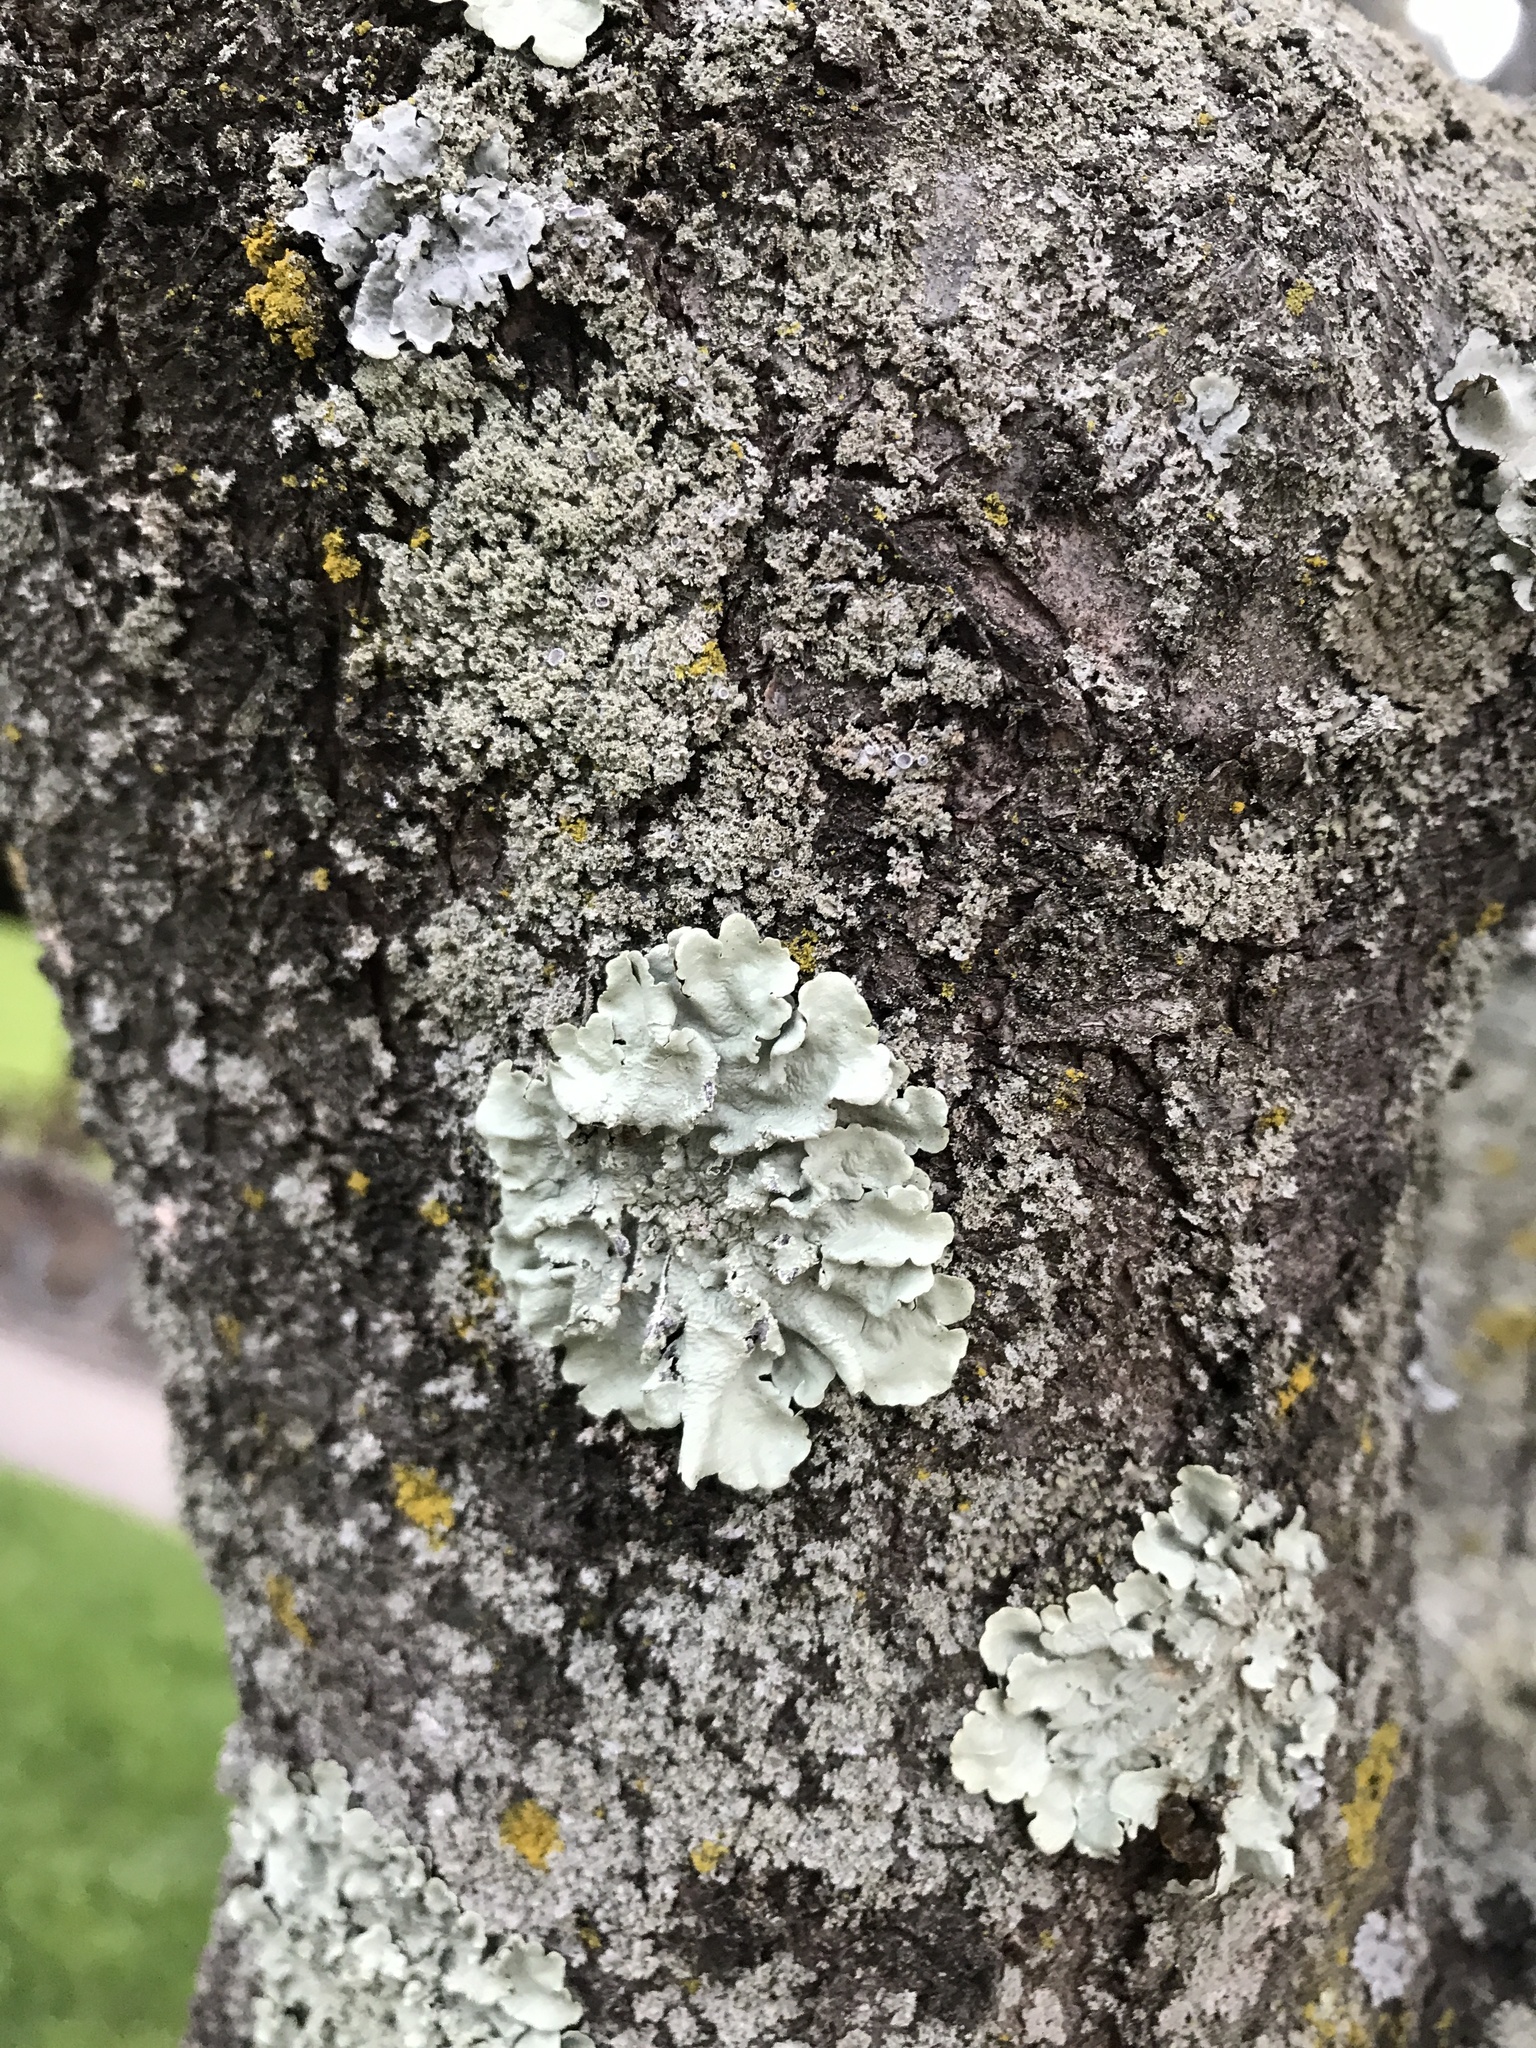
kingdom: Fungi
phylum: Ascomycota
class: Lecanoromycetes
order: Lecanorales
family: Parmeliaceae
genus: Flavoparmelia
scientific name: Flavoparmelia caperata
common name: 40-mile per hour lichen
